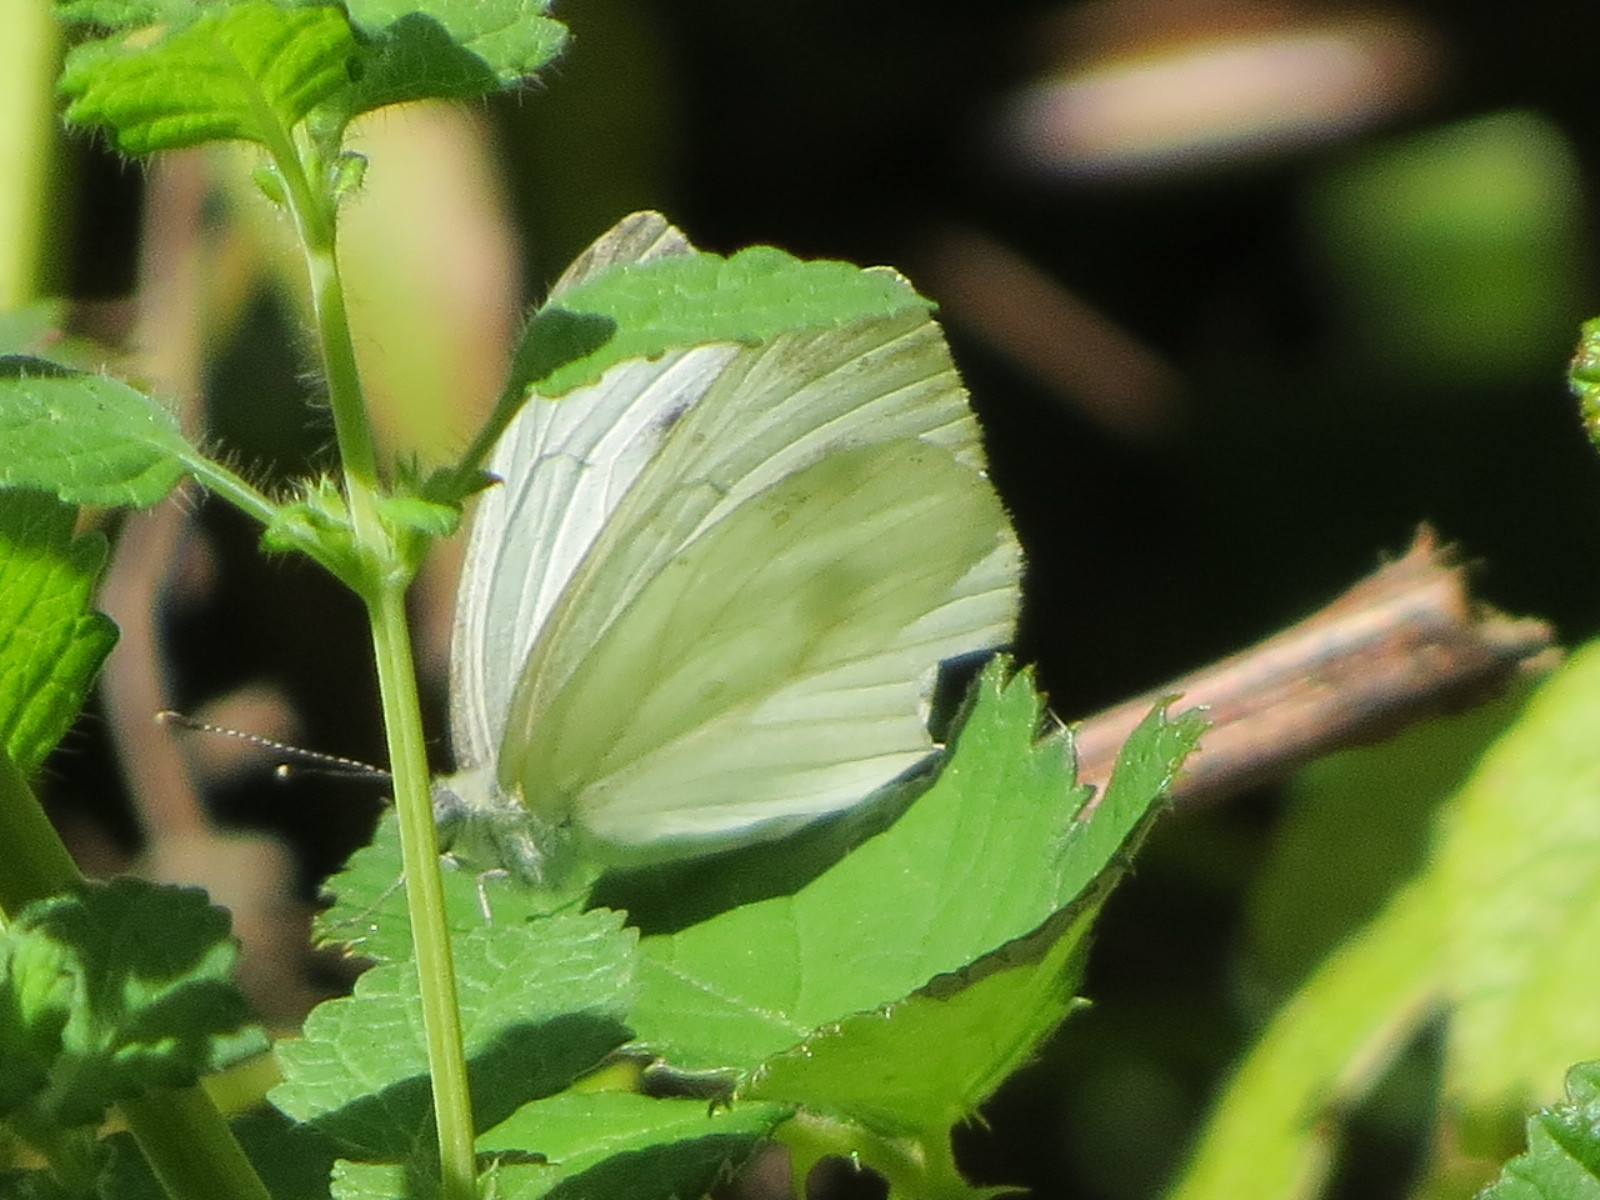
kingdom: Animalia
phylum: Arthropoda
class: Insecta
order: Lepidoptera
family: Pieridae
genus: Pieris
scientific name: Pieris rapae
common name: Small white
